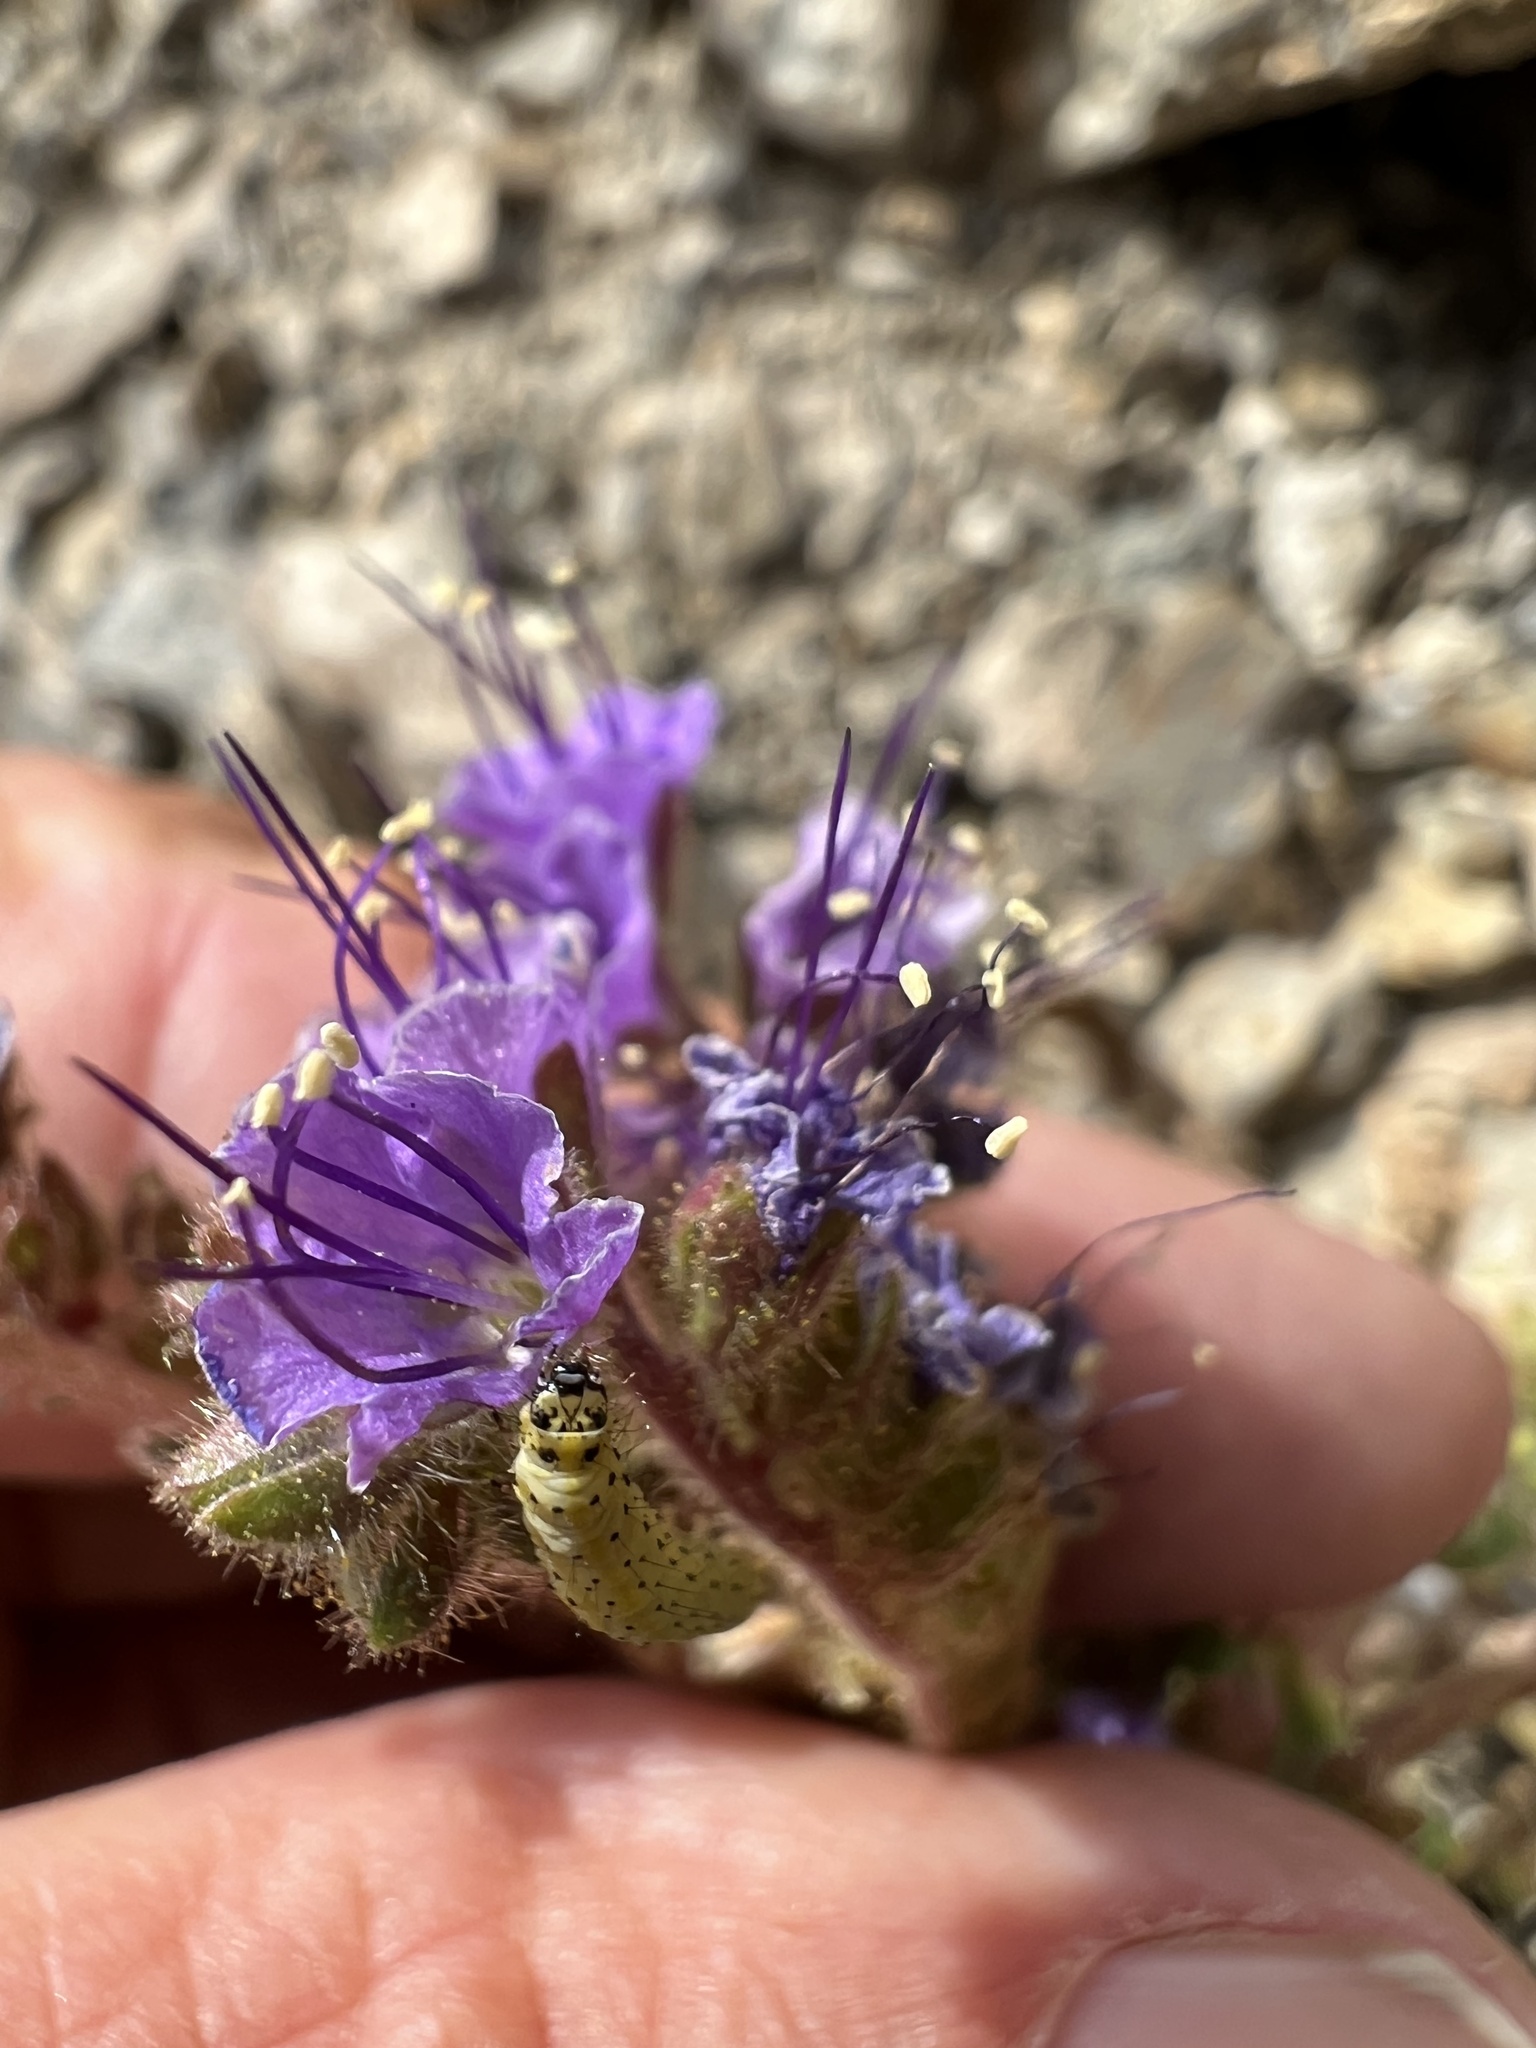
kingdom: Plantae
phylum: Tracheophyta
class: Magnoliopsida
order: Boraginales
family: Hydrophyllaceae
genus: Phacelia
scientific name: Phacelia crenulata
